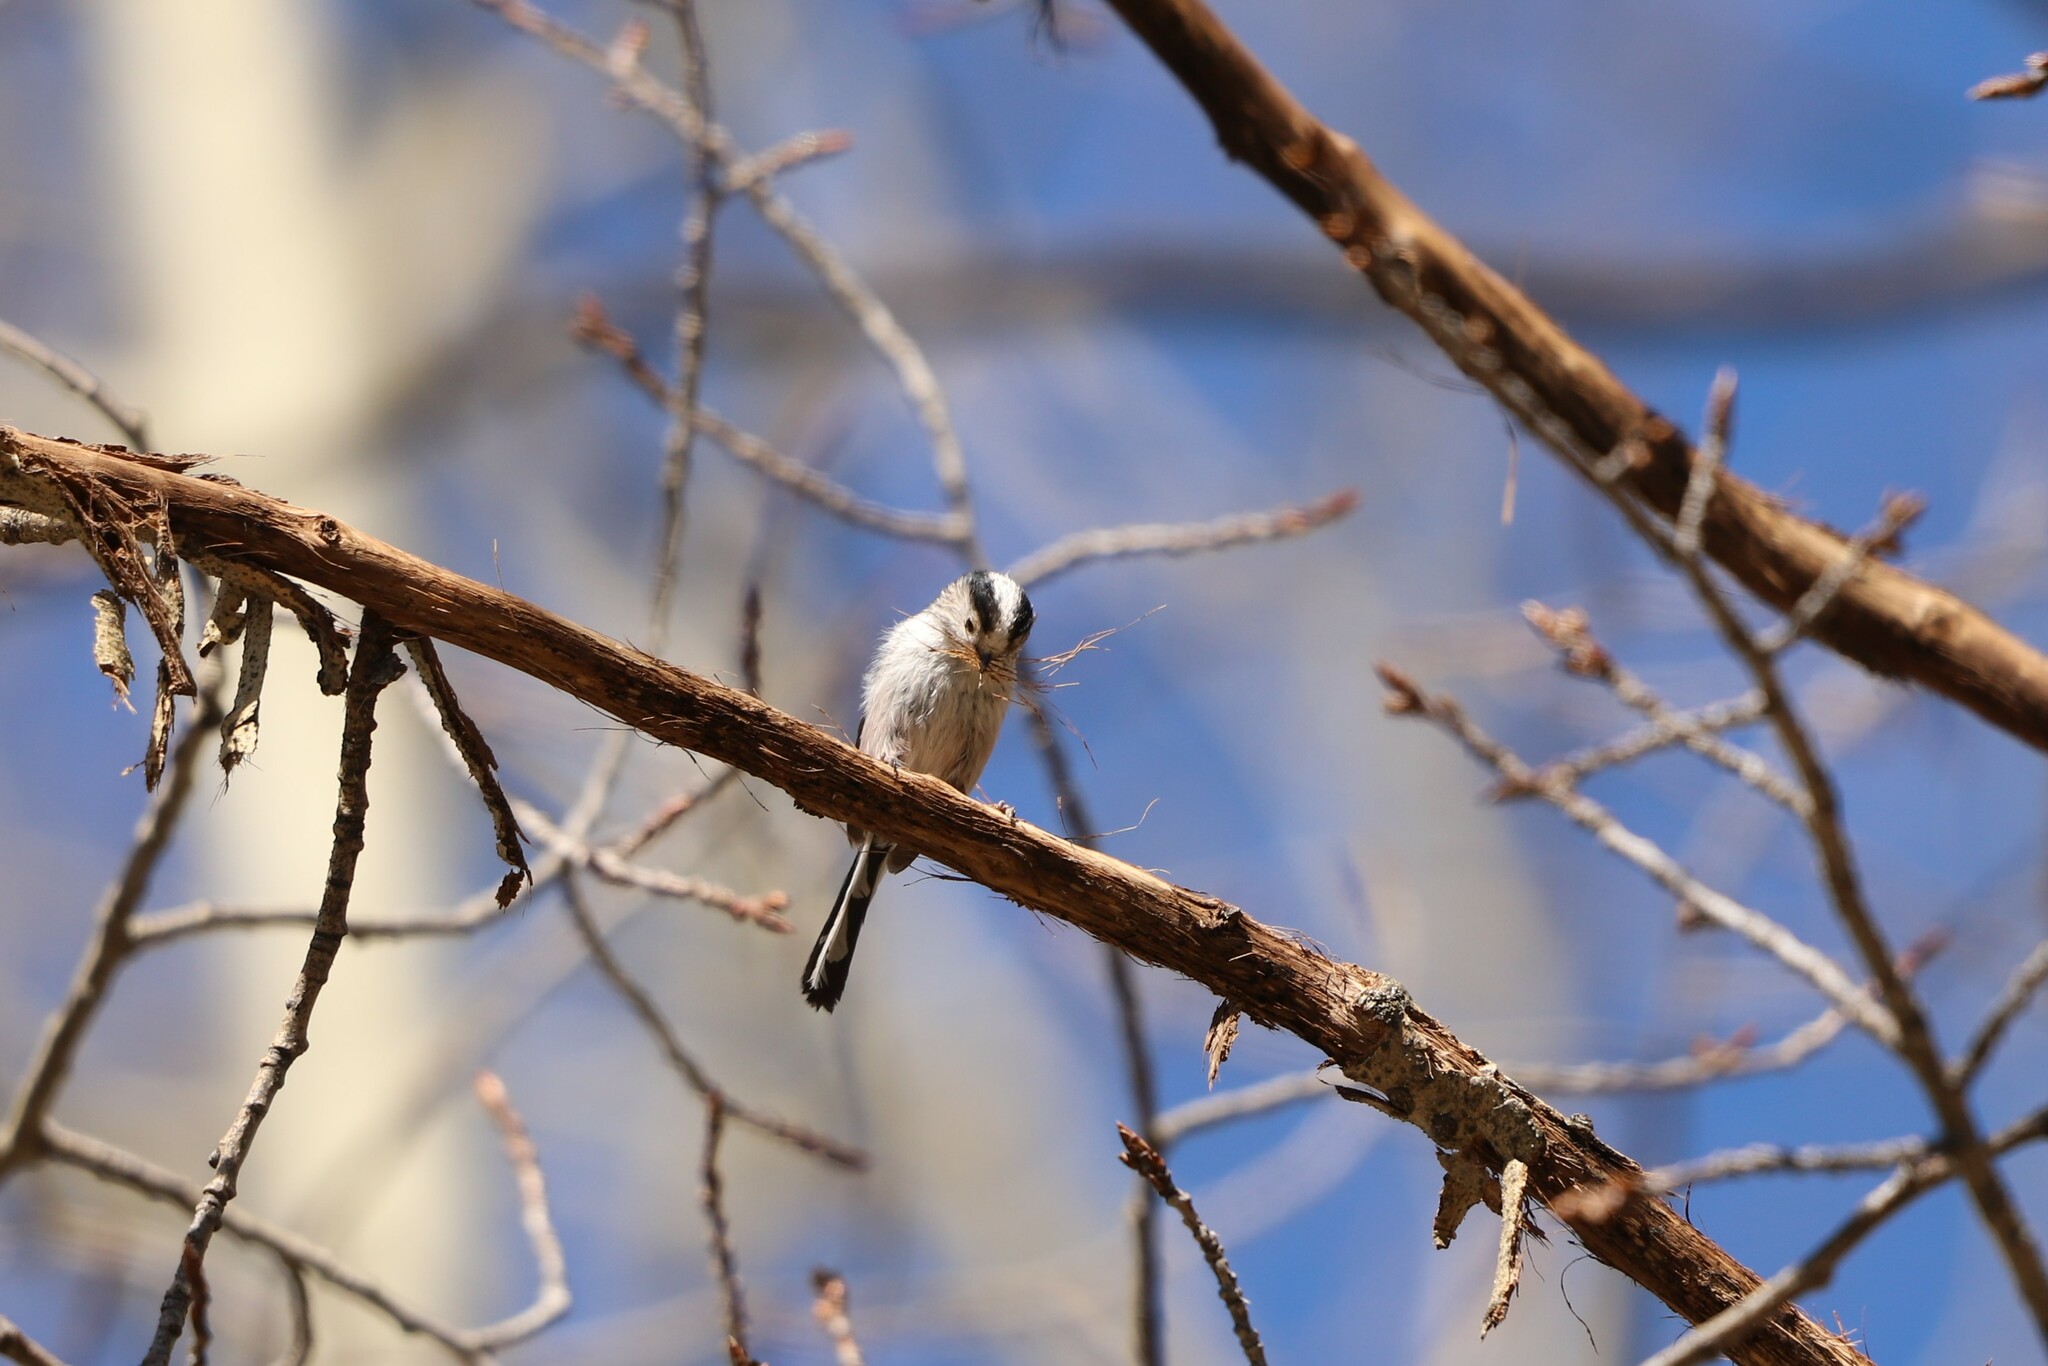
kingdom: Animalia
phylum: Chordata
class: Aves
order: Passeriformes
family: Aegithalidae
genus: Aegithalos
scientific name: Aegithalos caudatus
